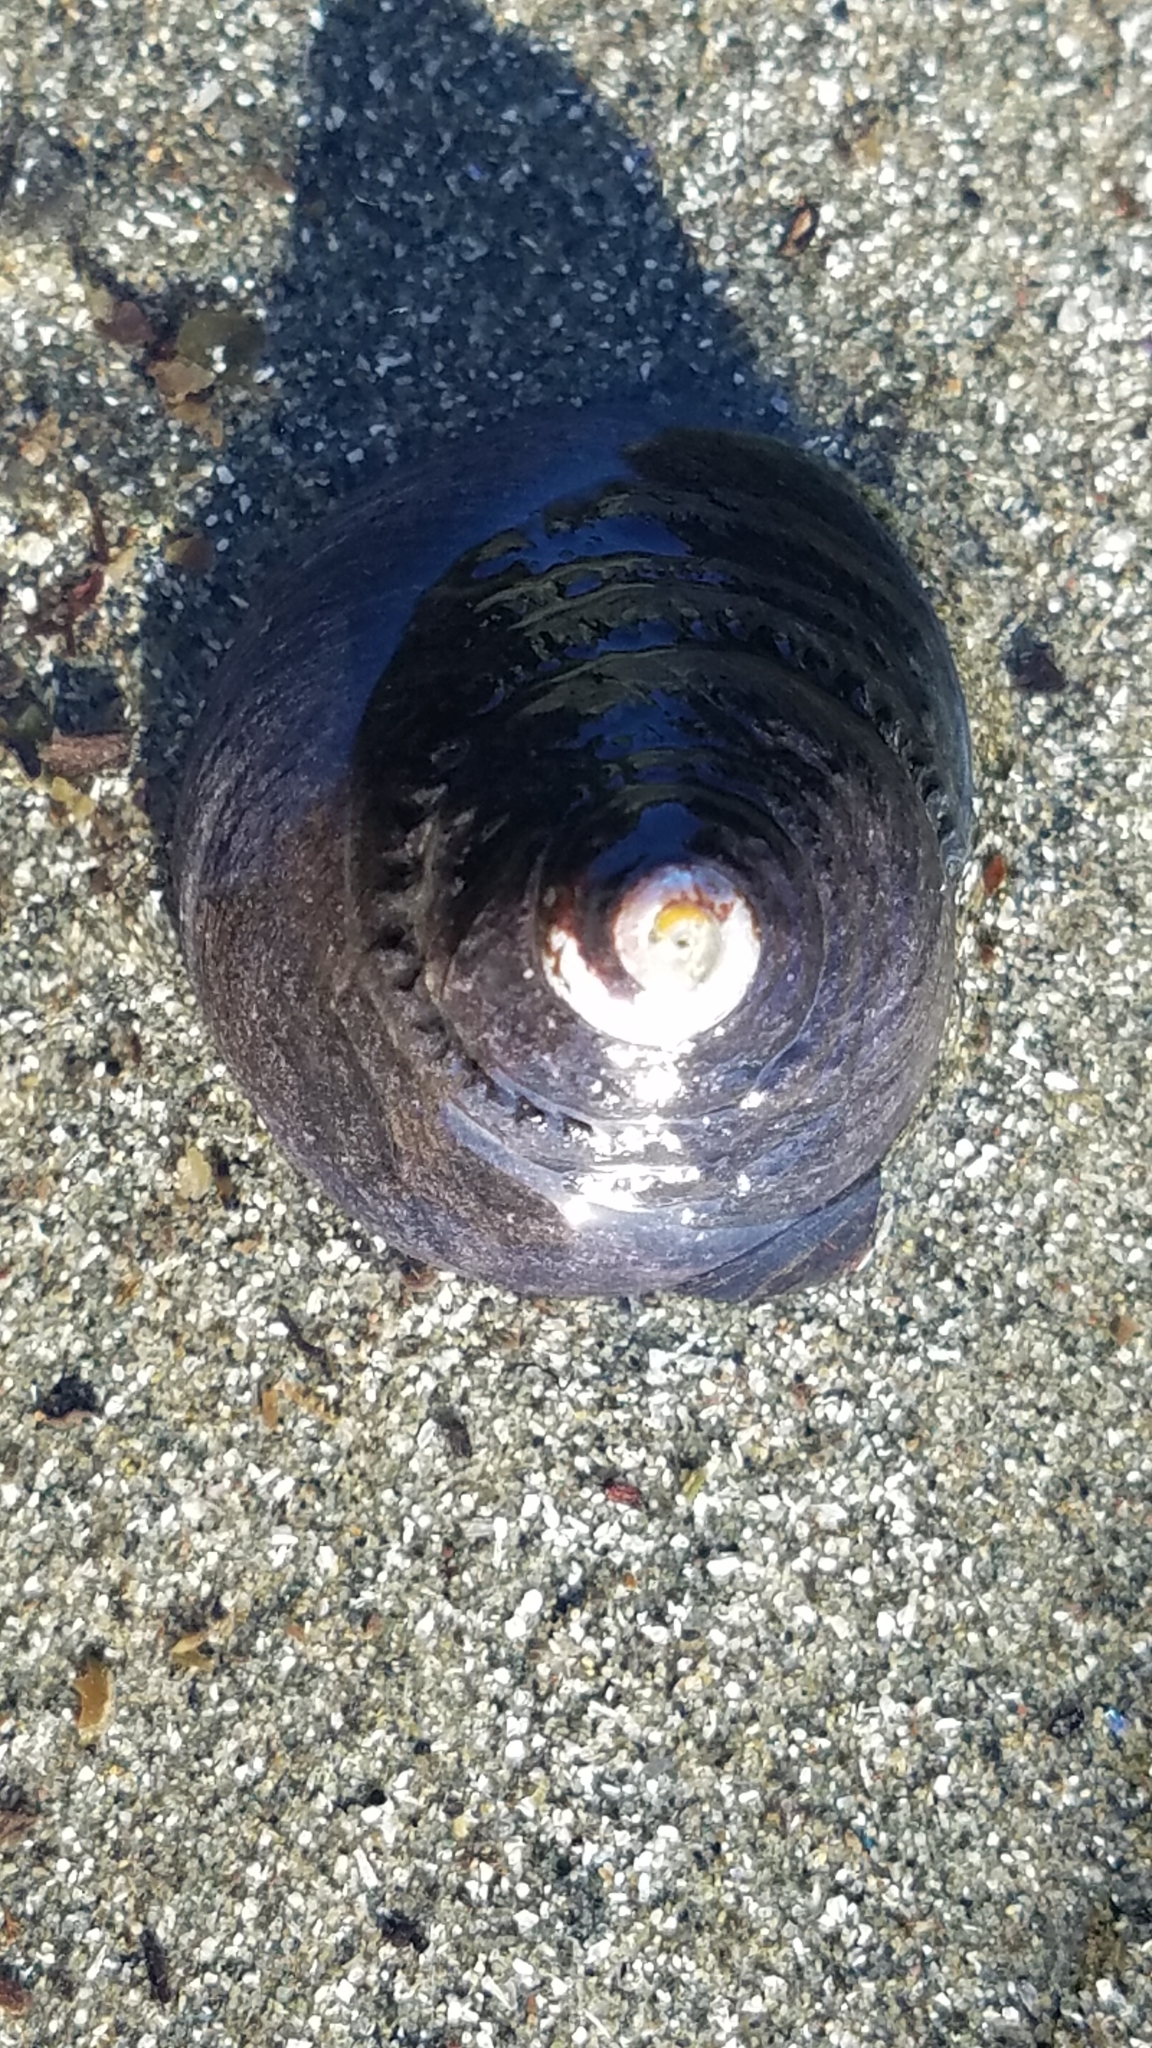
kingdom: Animalia
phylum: Mollusca
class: Gastropoda
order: Trochida
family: Tegulidae
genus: Tegula
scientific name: Tegula funebralis
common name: Black tegula
